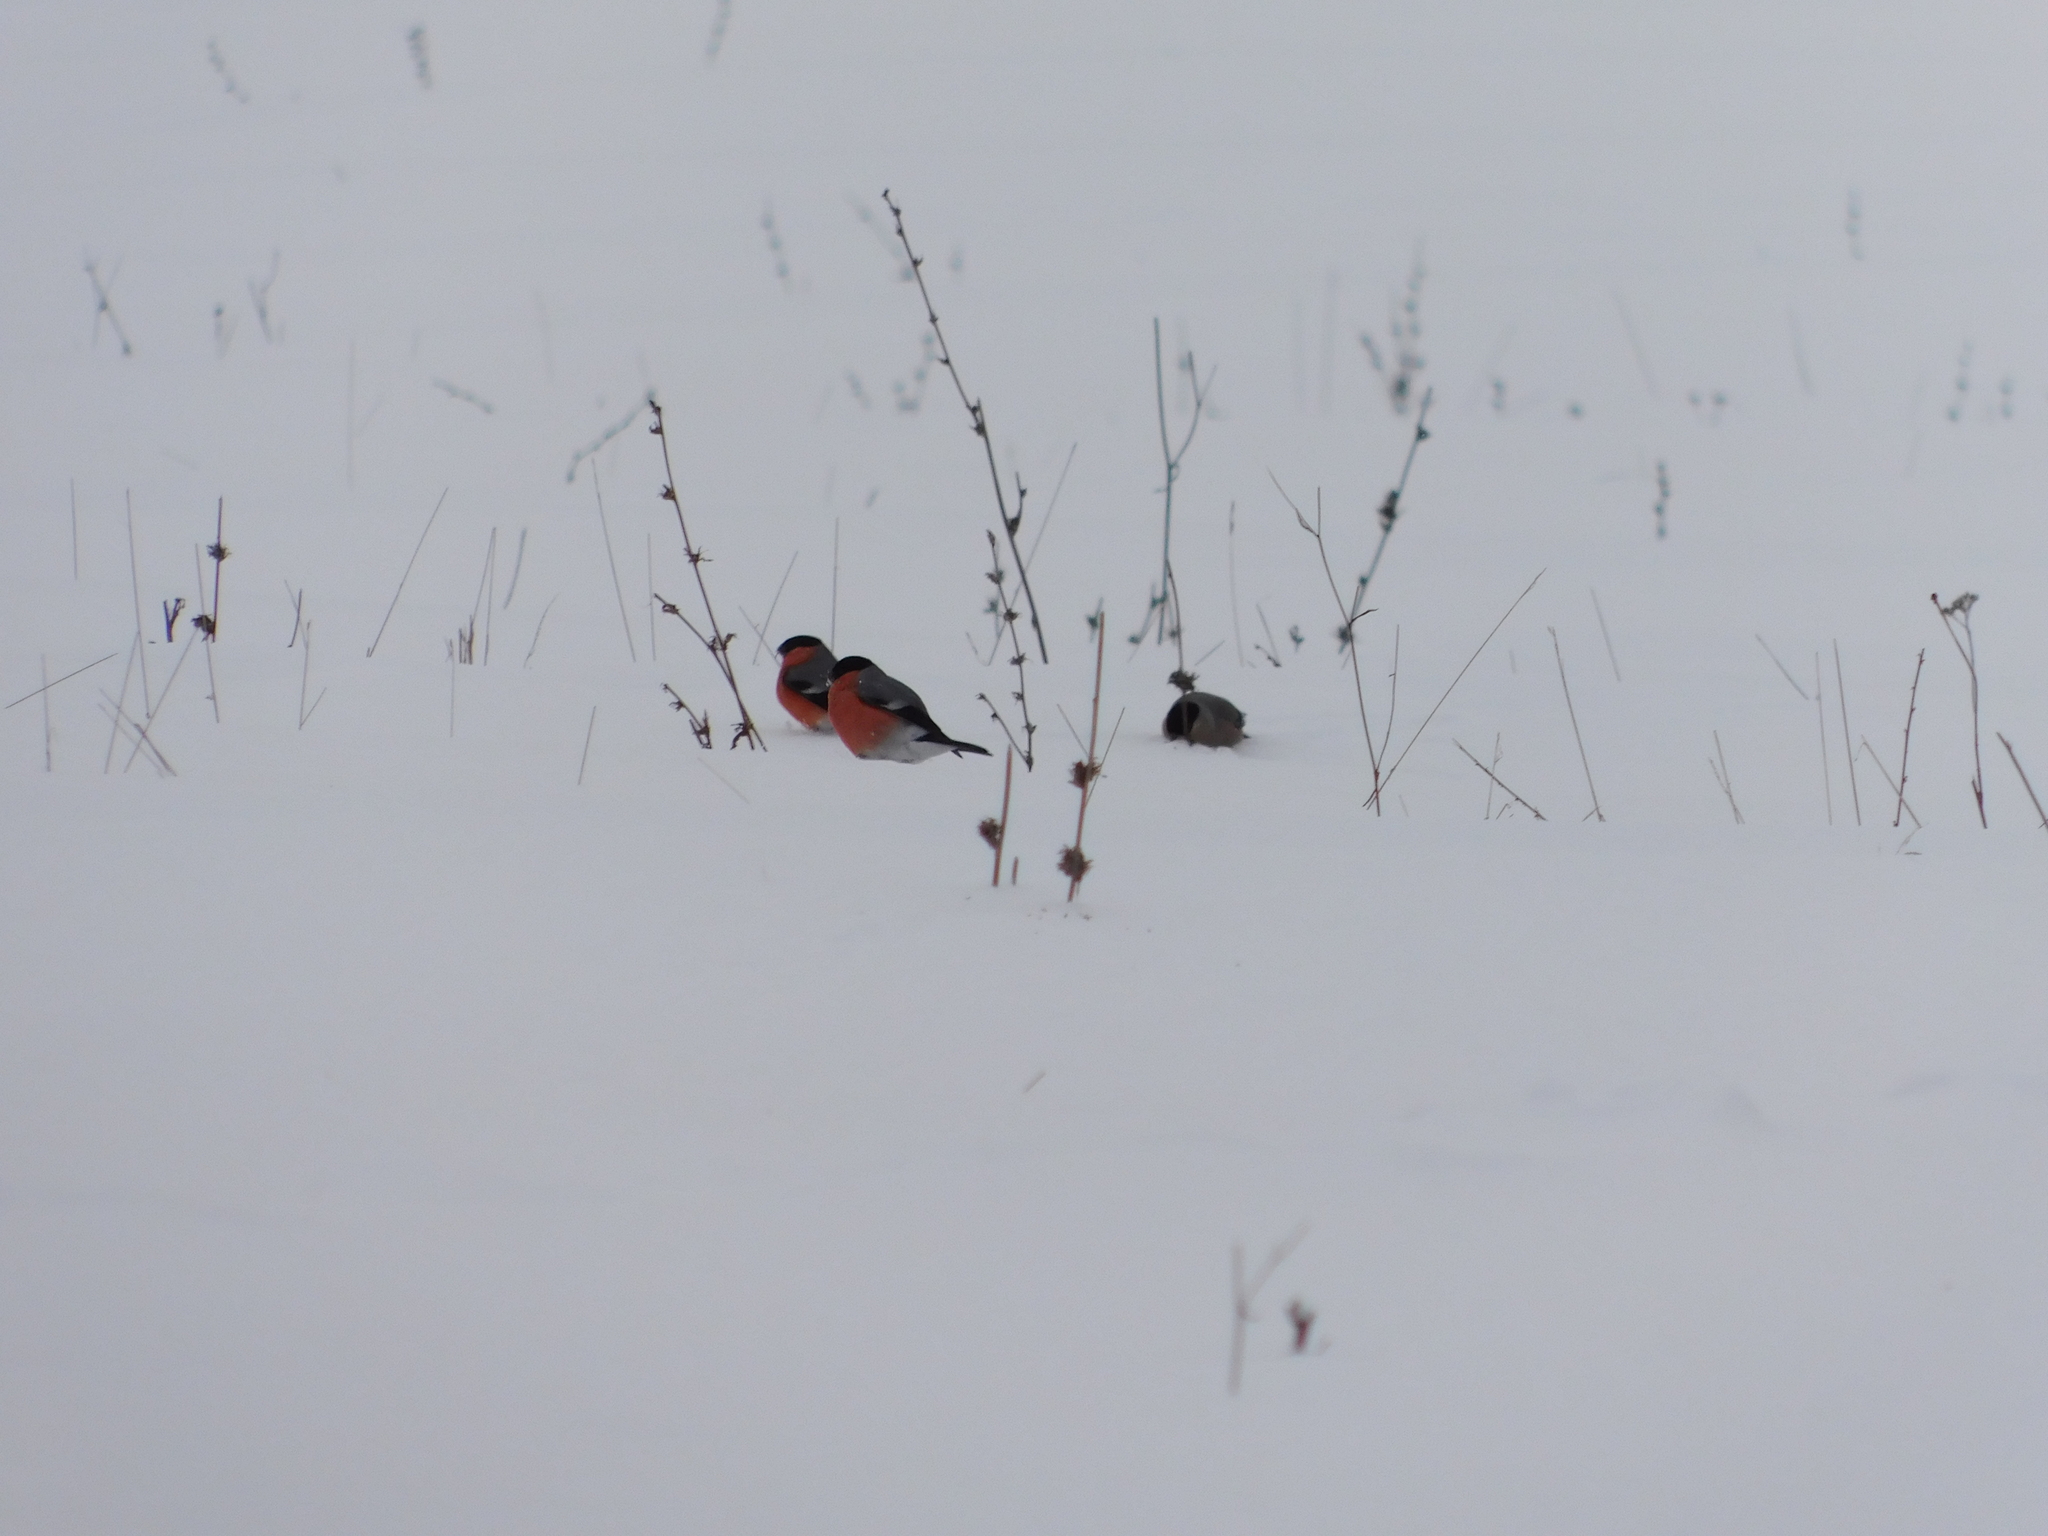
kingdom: Animalia
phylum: Chordata
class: Aves
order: Passeriformes
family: Fringillidae
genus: Pyrrhula
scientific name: Pyrrhula pyrrhula
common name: Eurasian bullfinch
